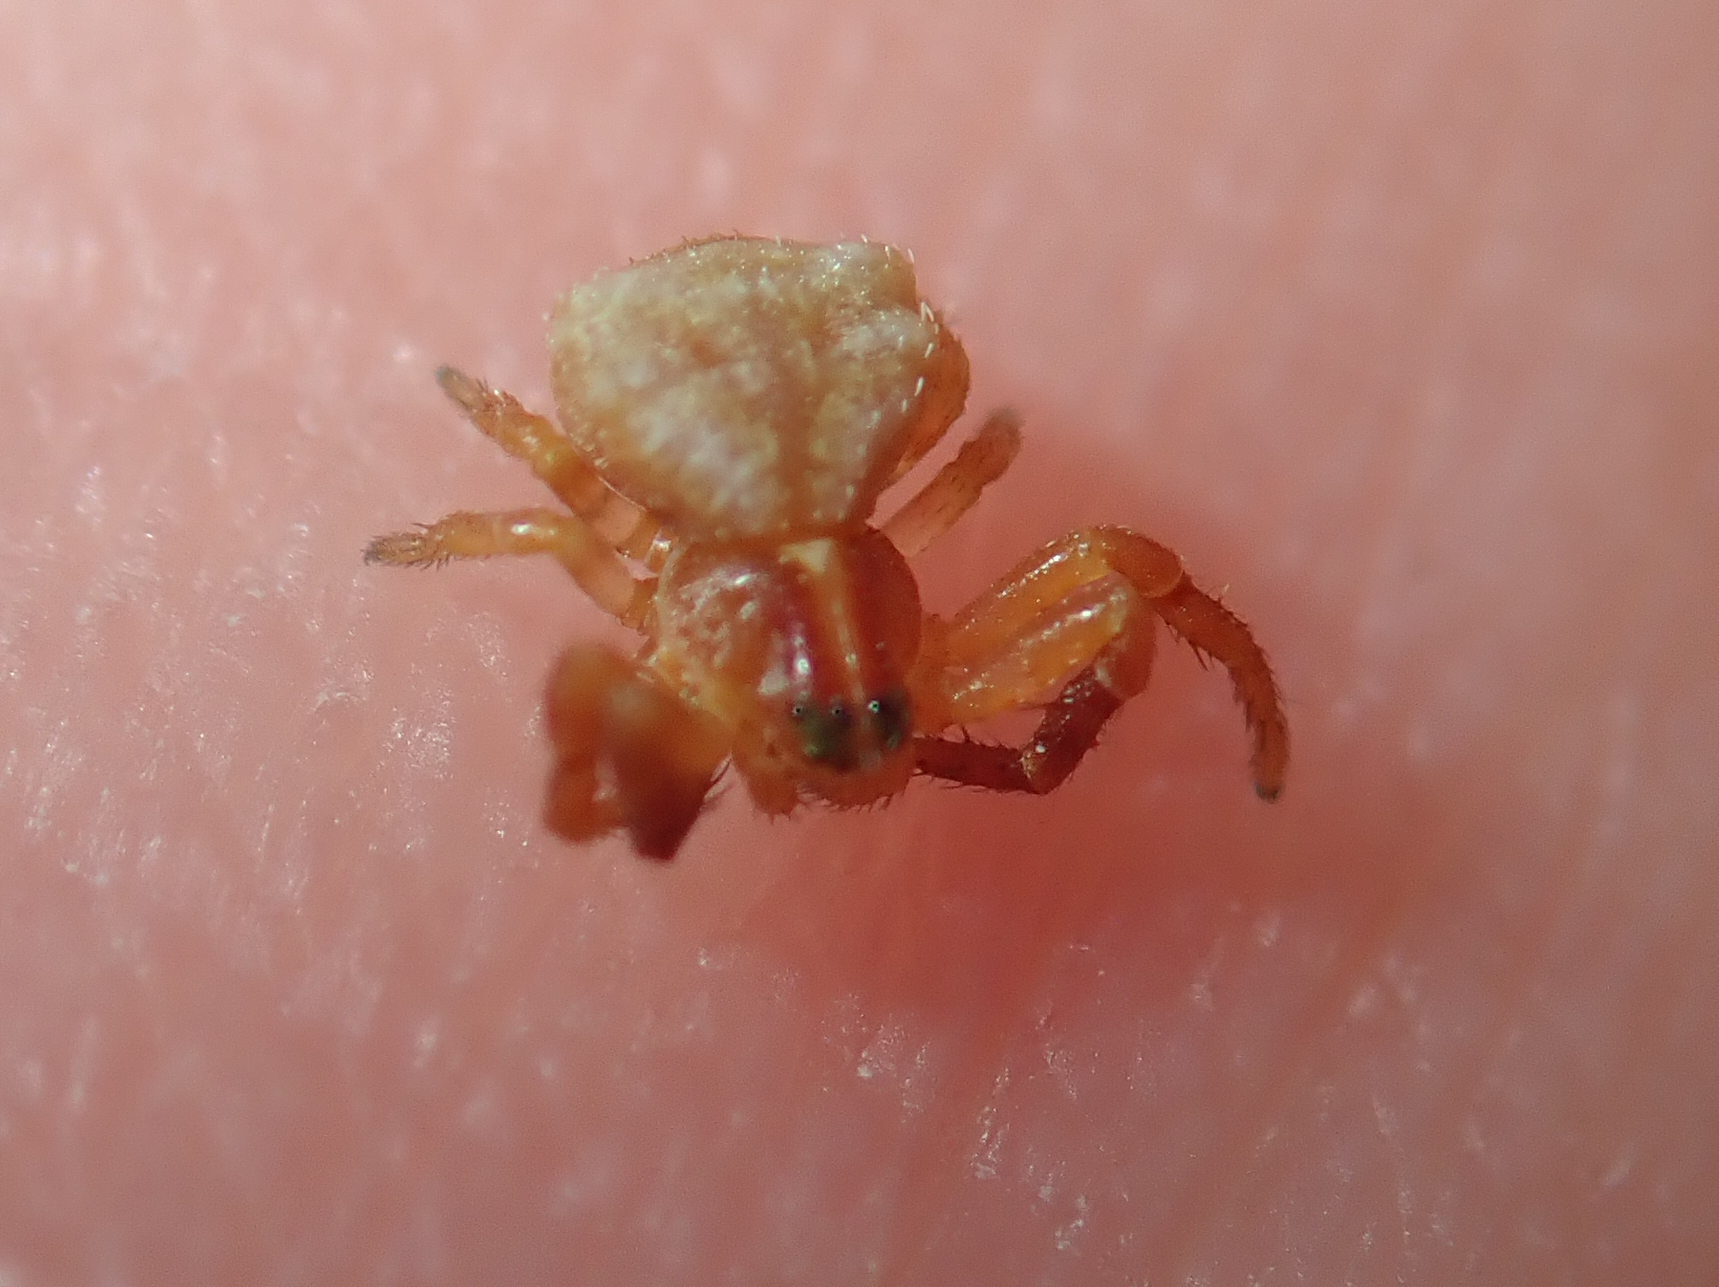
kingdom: Animalia
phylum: Arthropoda
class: Arachnida
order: Araneae
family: Thomisidae
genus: Coenypha
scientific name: Coenypha ditissima
